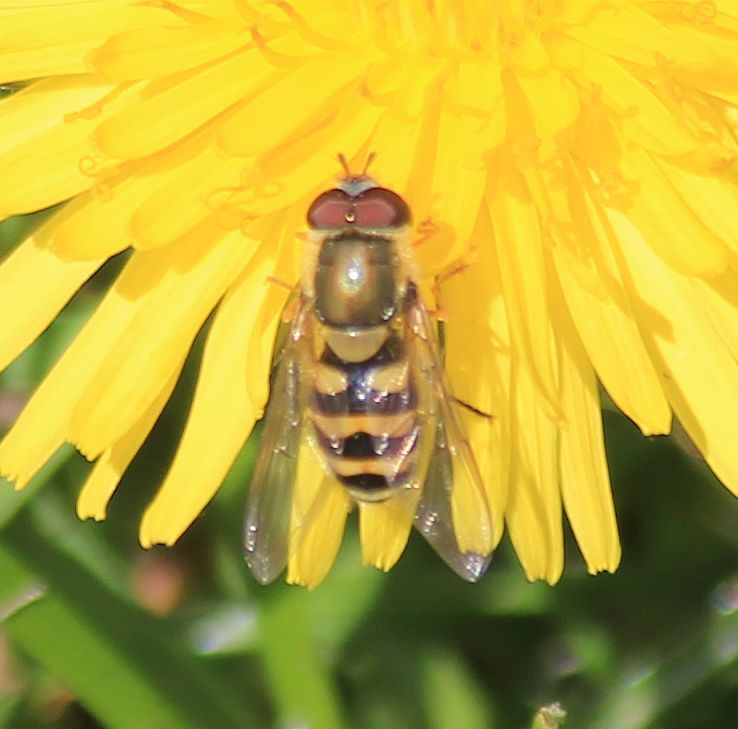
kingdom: Animalia
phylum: Arthropoda
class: Insecta
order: Diptera
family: Syrphidae
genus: Syrphus
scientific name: Syrphus
